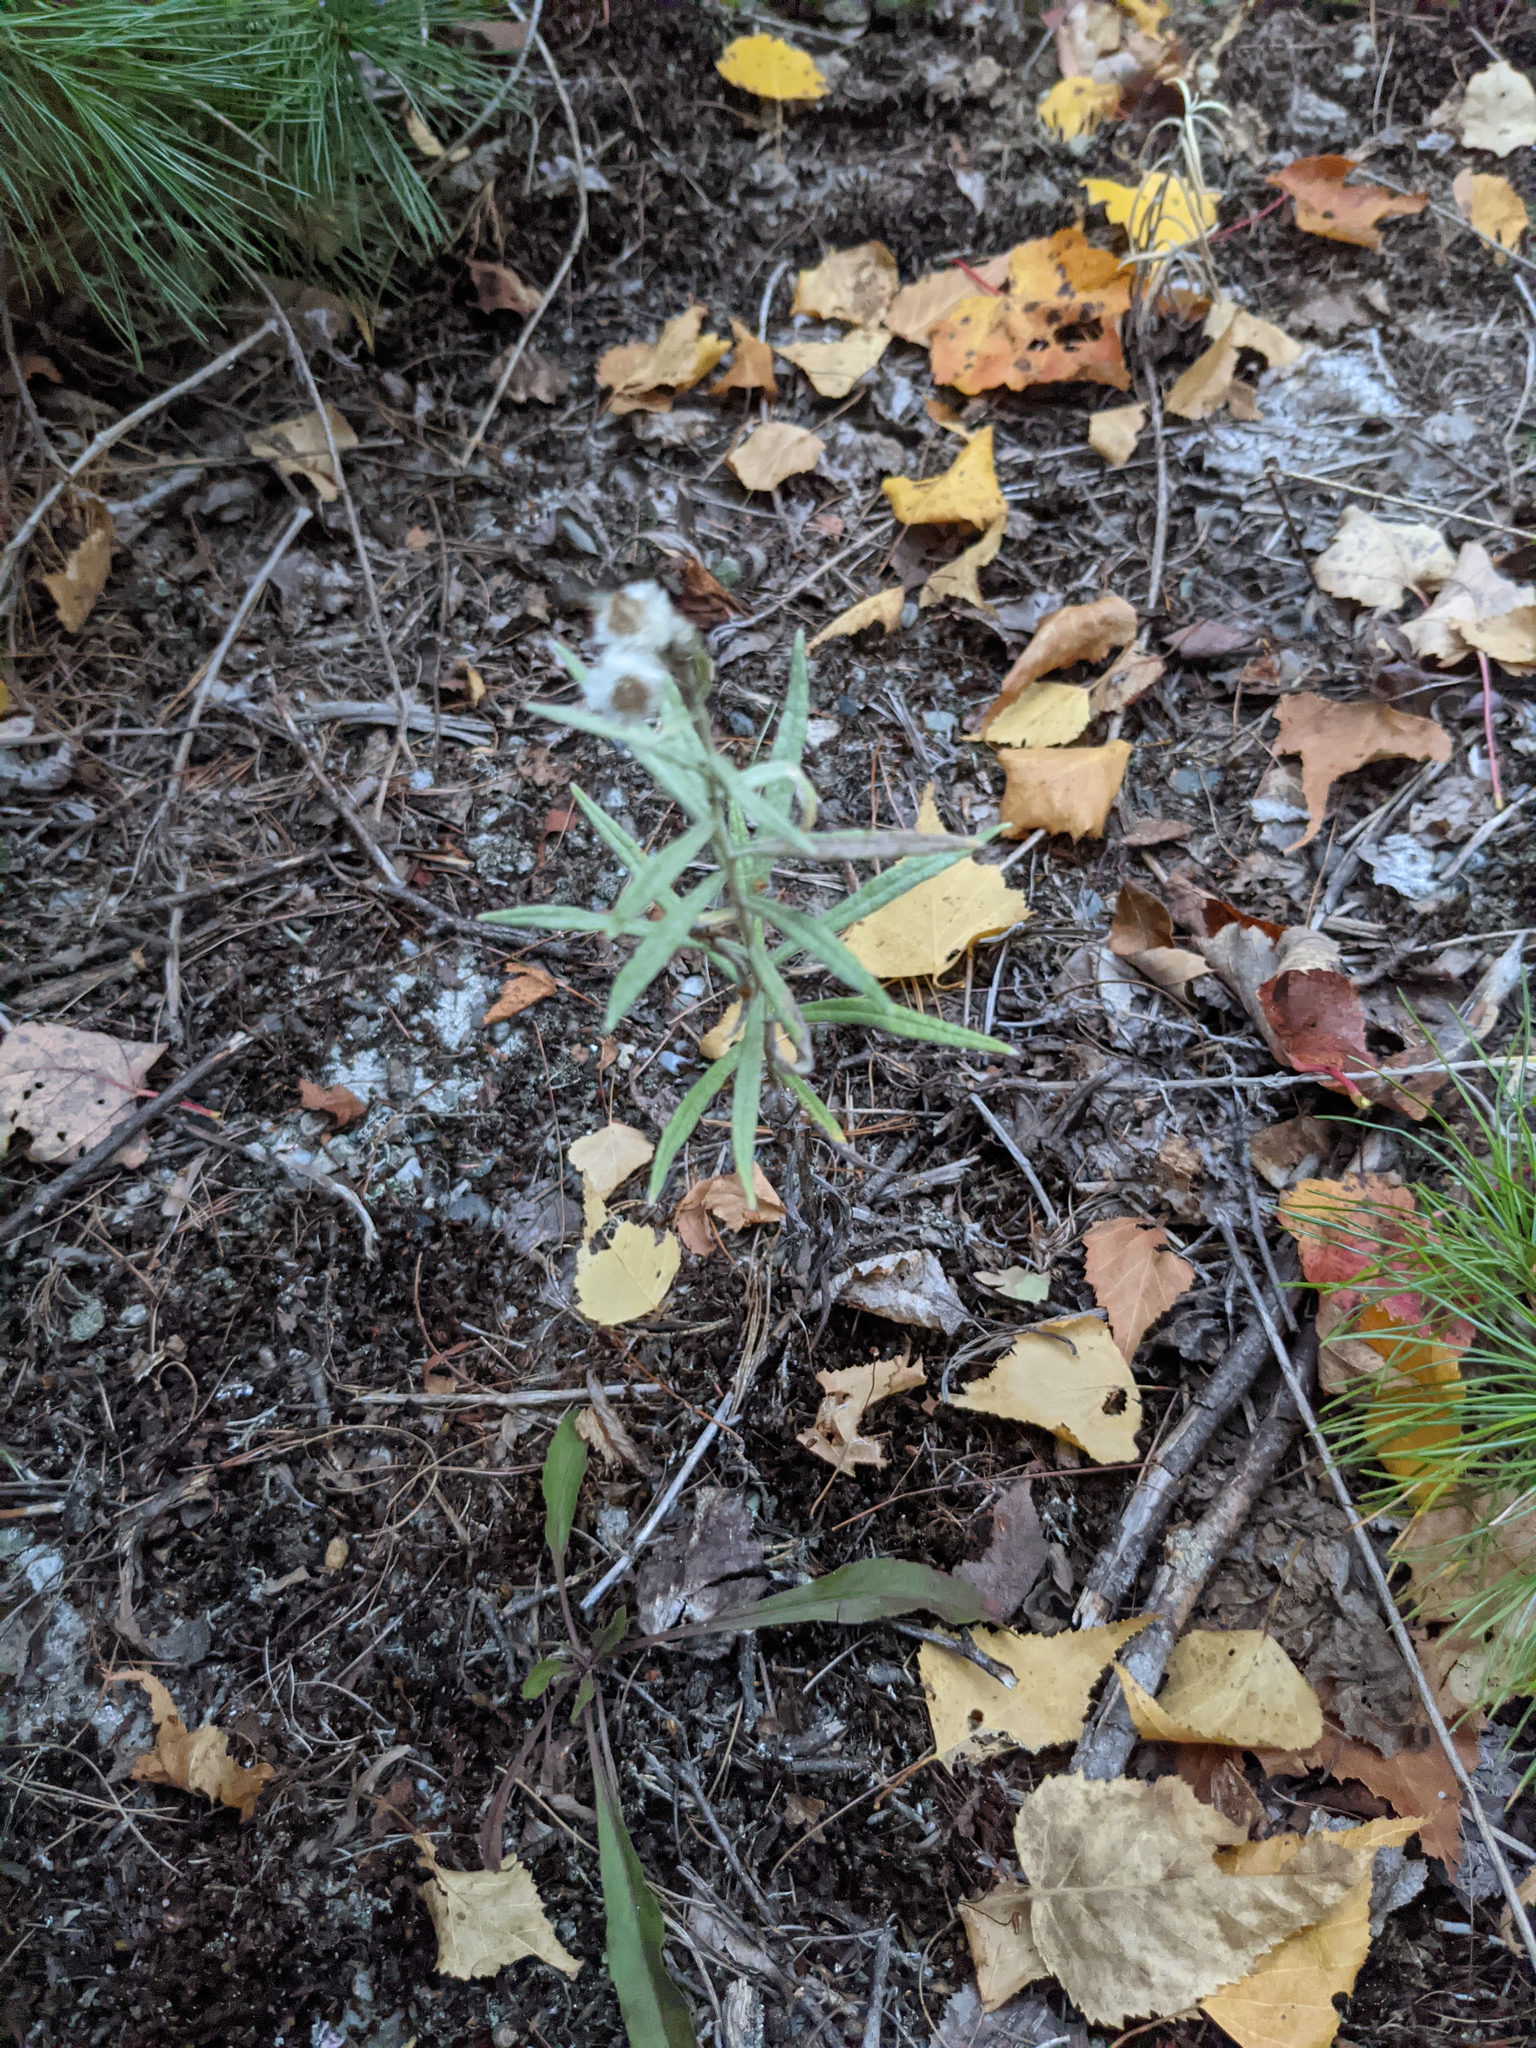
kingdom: Plantae
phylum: Tracheophyta
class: Magnoliopsida
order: Asterales
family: Asteraceae
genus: Anaphalis
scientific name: Anaphalis margaritacea
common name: Pearly everlasting
